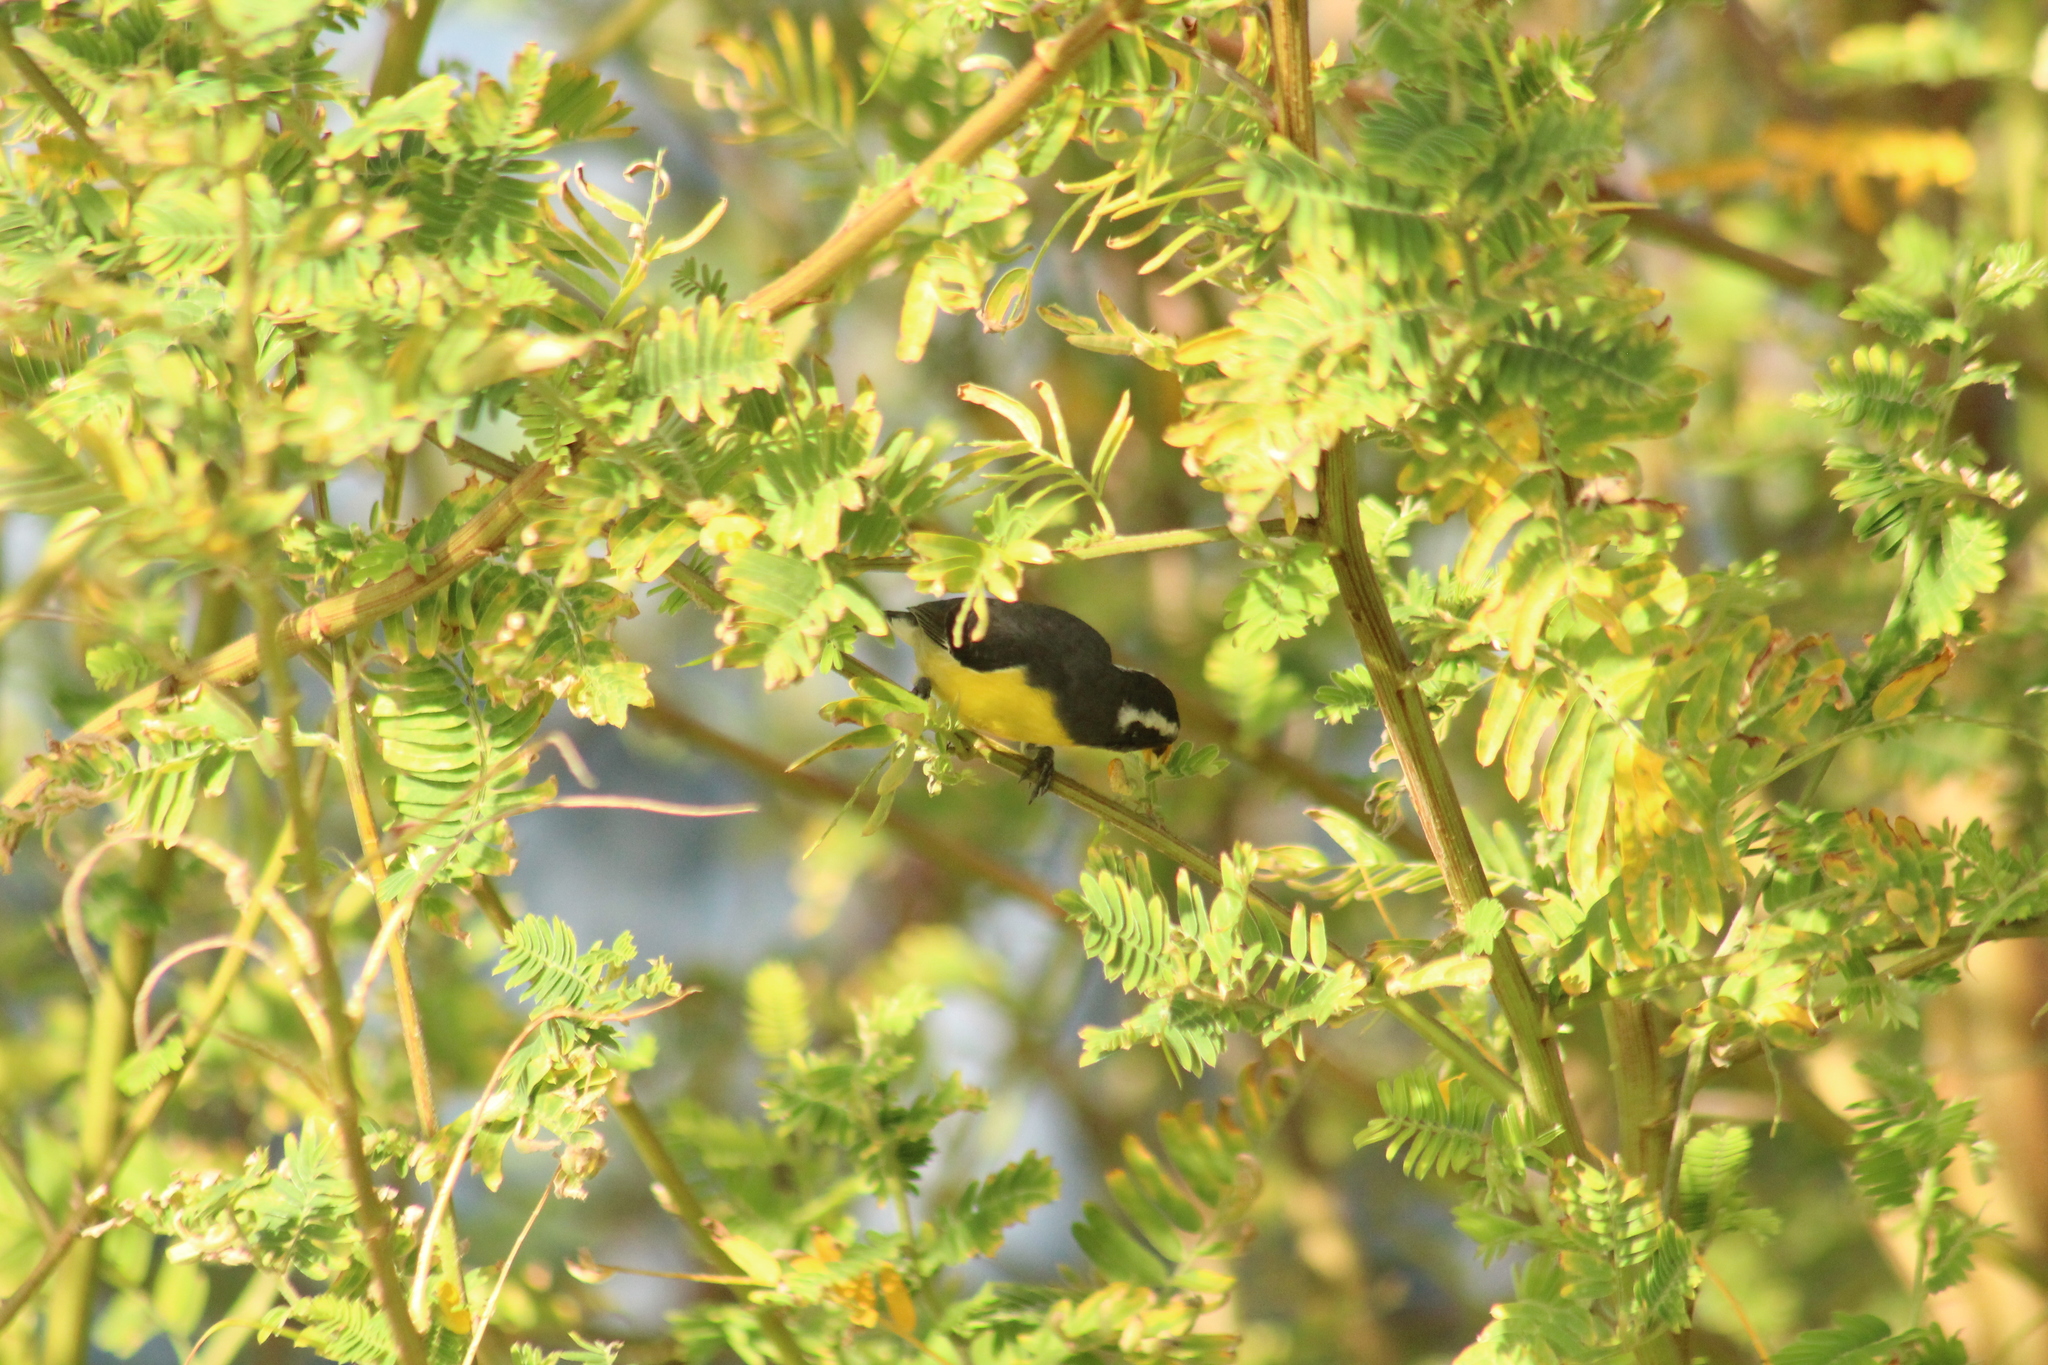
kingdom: Animalia
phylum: Chordata
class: Aves
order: Passeriformes
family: Thraupidae
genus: Coereba
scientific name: Coereba flaveola
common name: Bananaquit
